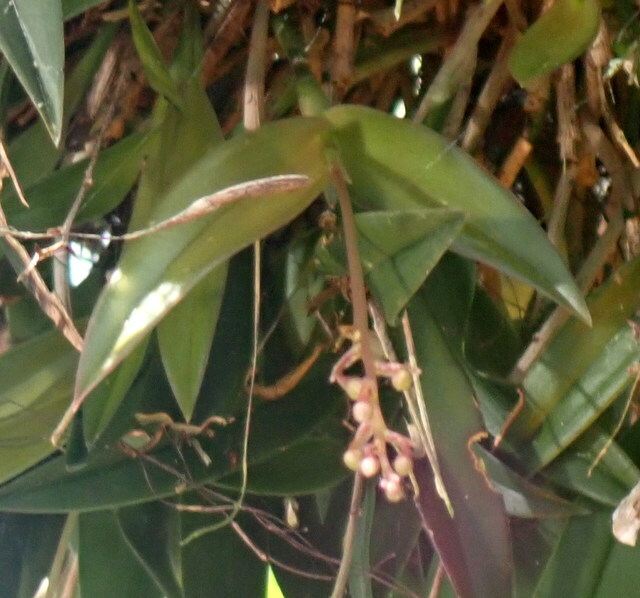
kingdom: Plantae
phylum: Tracheophyta
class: Liliopsida
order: Asparagales
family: Orchidaceae
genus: Epidendrum
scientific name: Epidendrum conopseum
